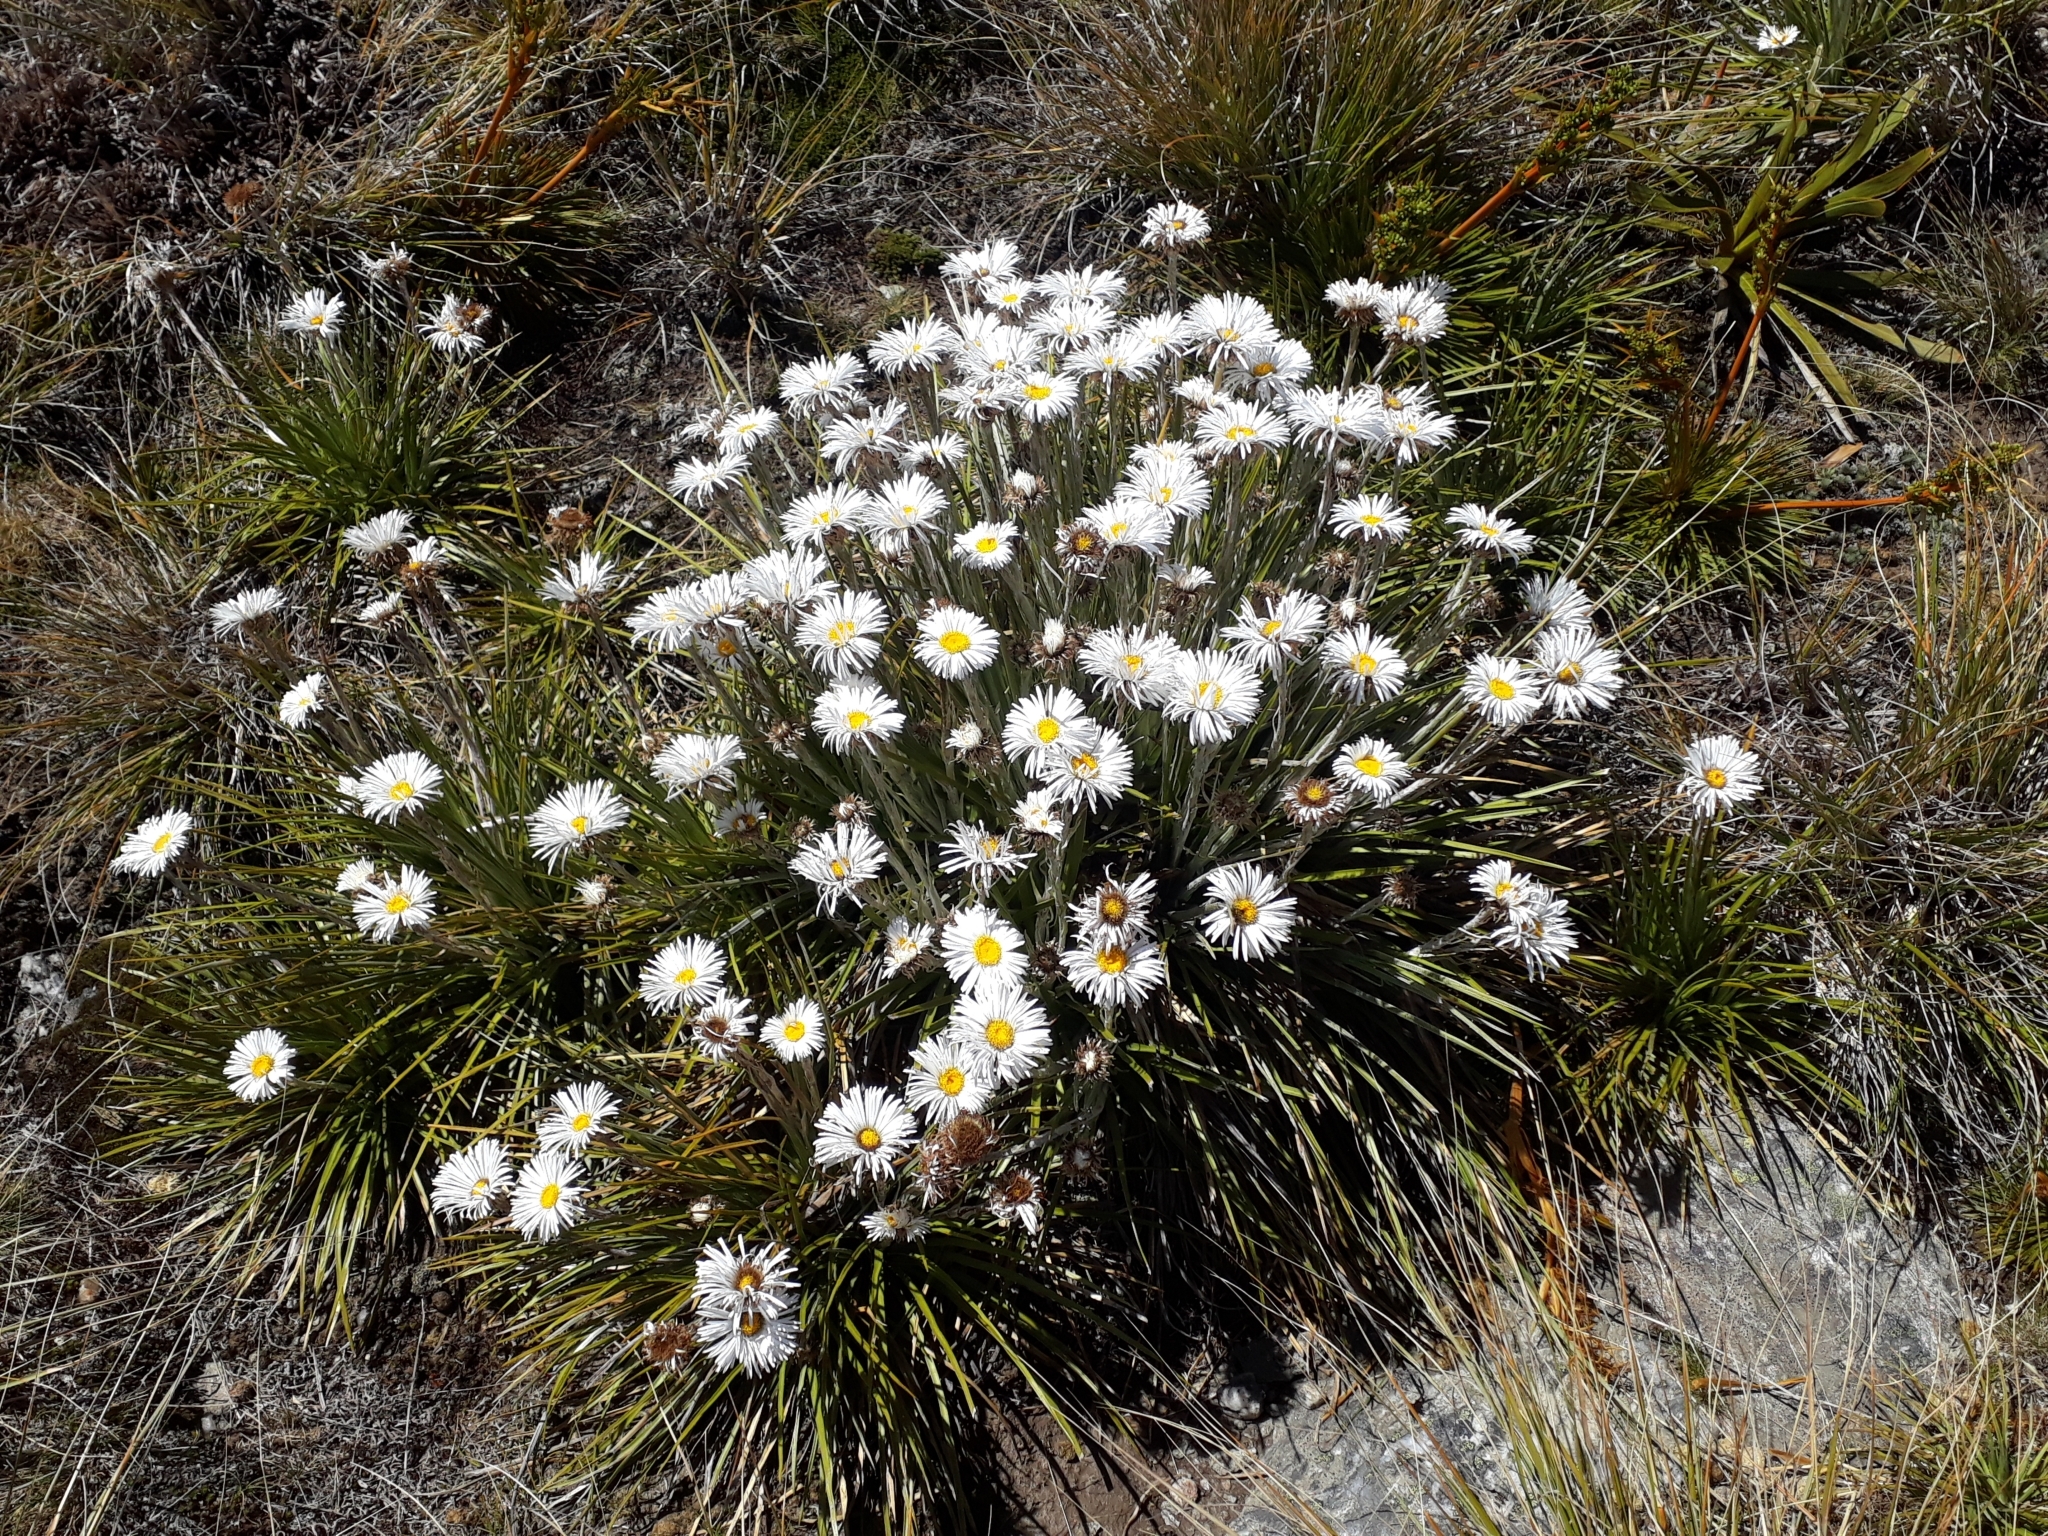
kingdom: Plantae
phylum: Tracheophyta
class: Magnoliopsida
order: Asterales
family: Asteraceae
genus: Celmisia
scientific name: Celmisia lyallii
